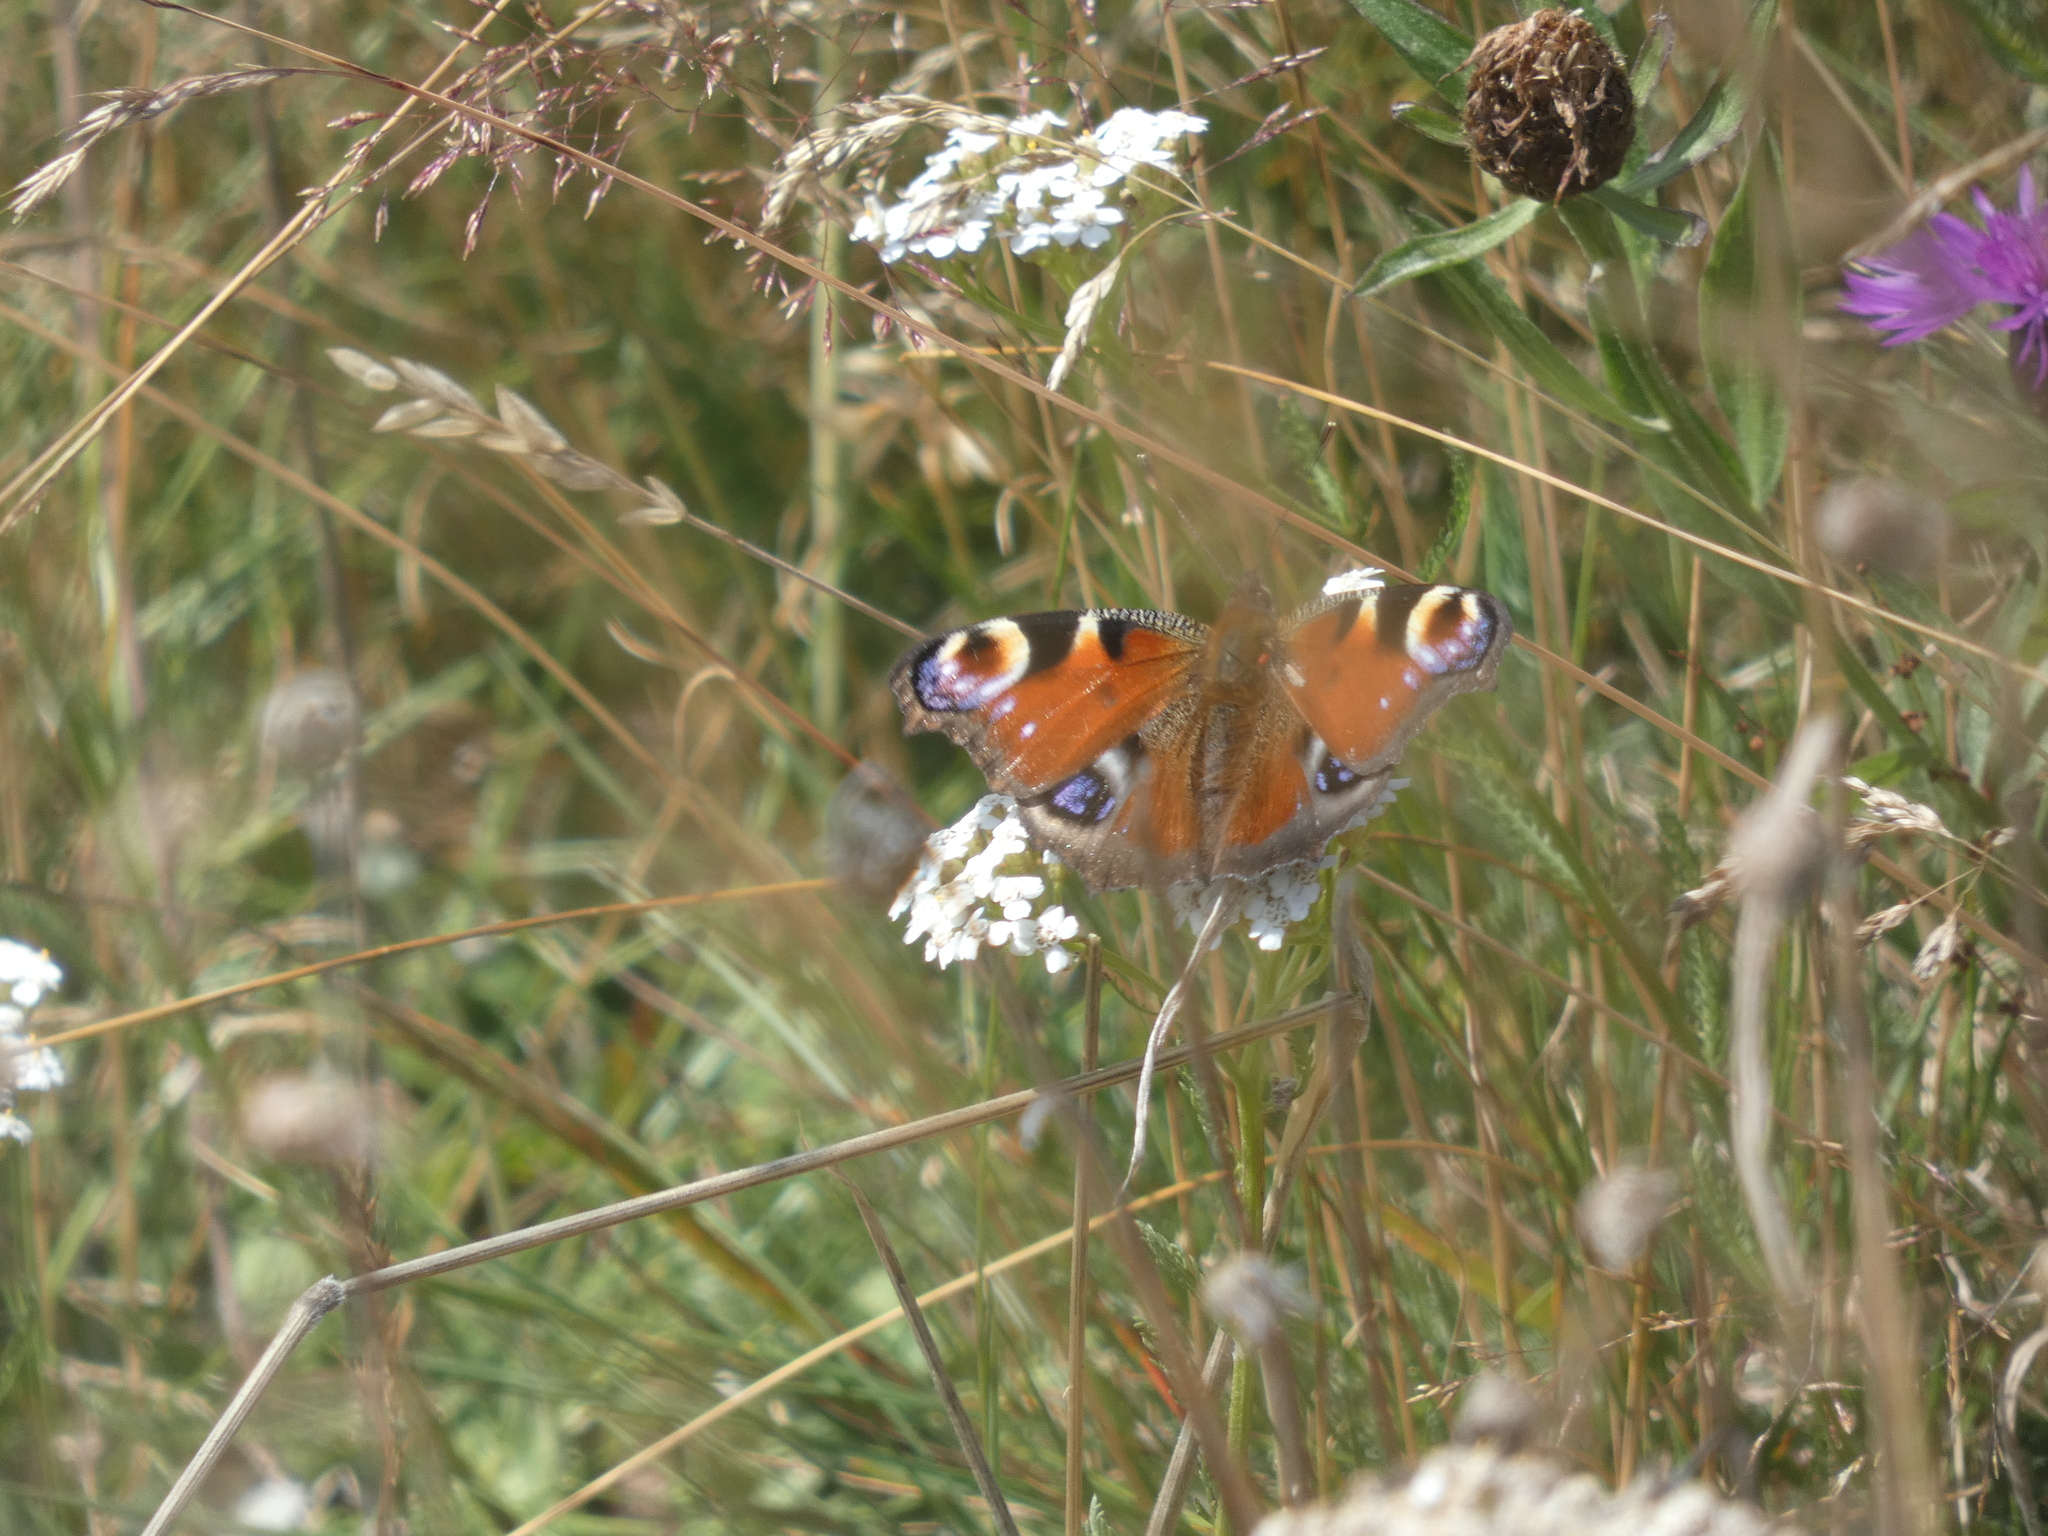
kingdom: Animalia
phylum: Arthropoda
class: Insecta
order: Lepidoptera
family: Nymphalidae
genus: Aglais
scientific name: Aglais io
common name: Peacock
